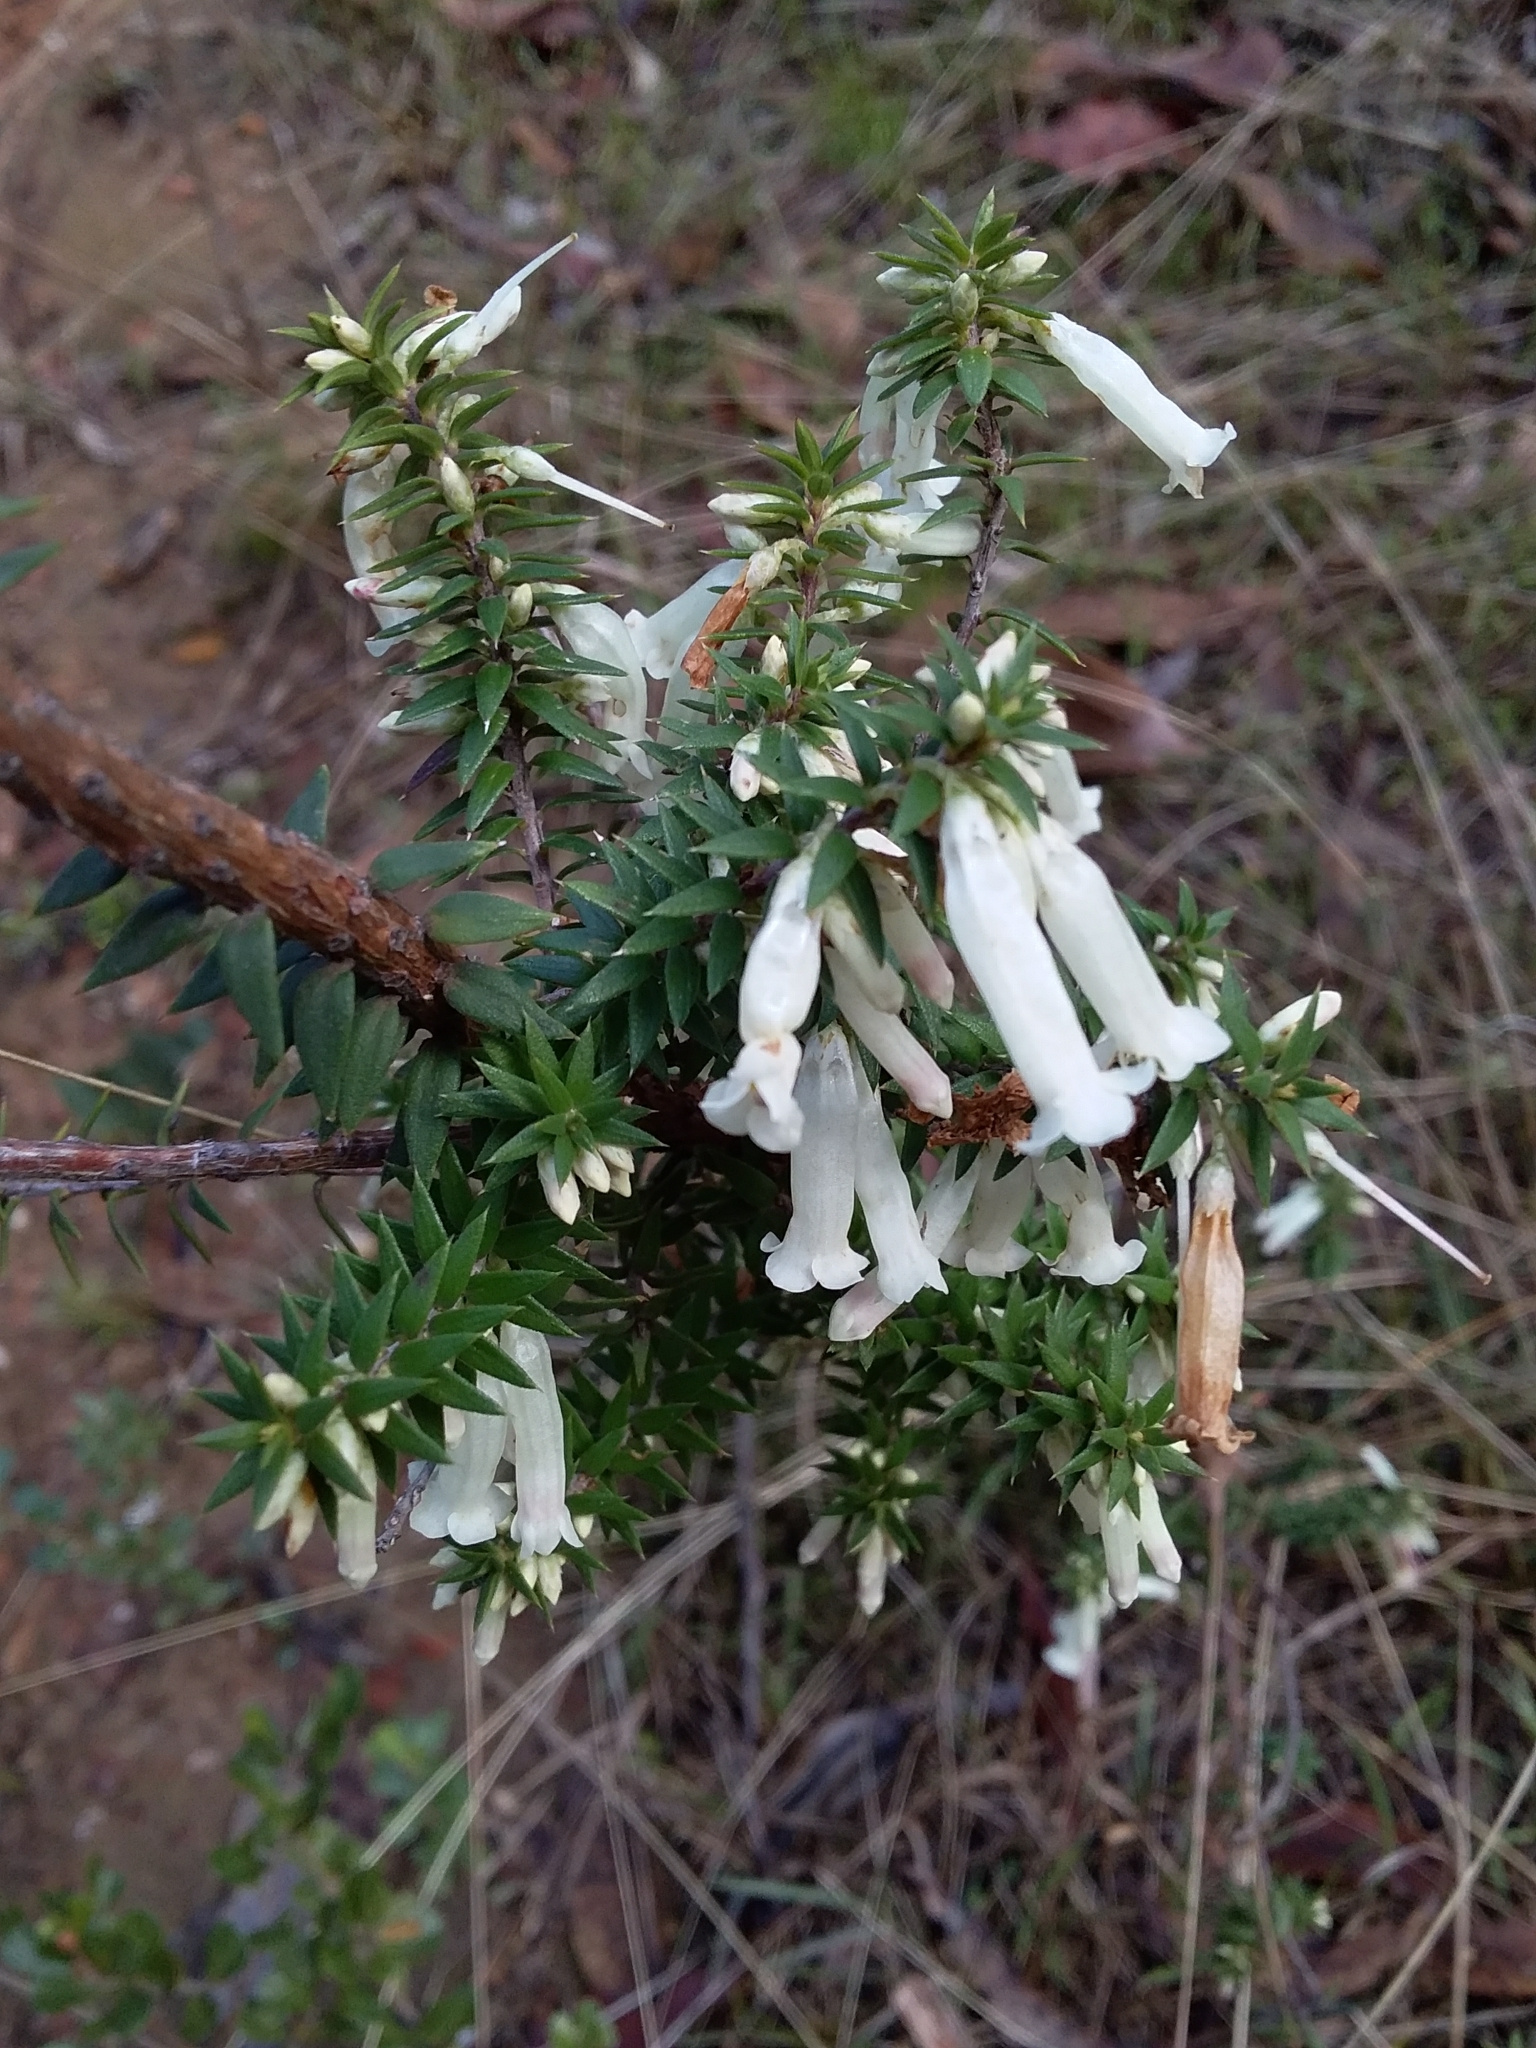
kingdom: Plantae
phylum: Tracheophyta
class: Magnoliopsida
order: Ericales
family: Ericaceae
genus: Epacris
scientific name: Epacris impressa
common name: Common-heath
